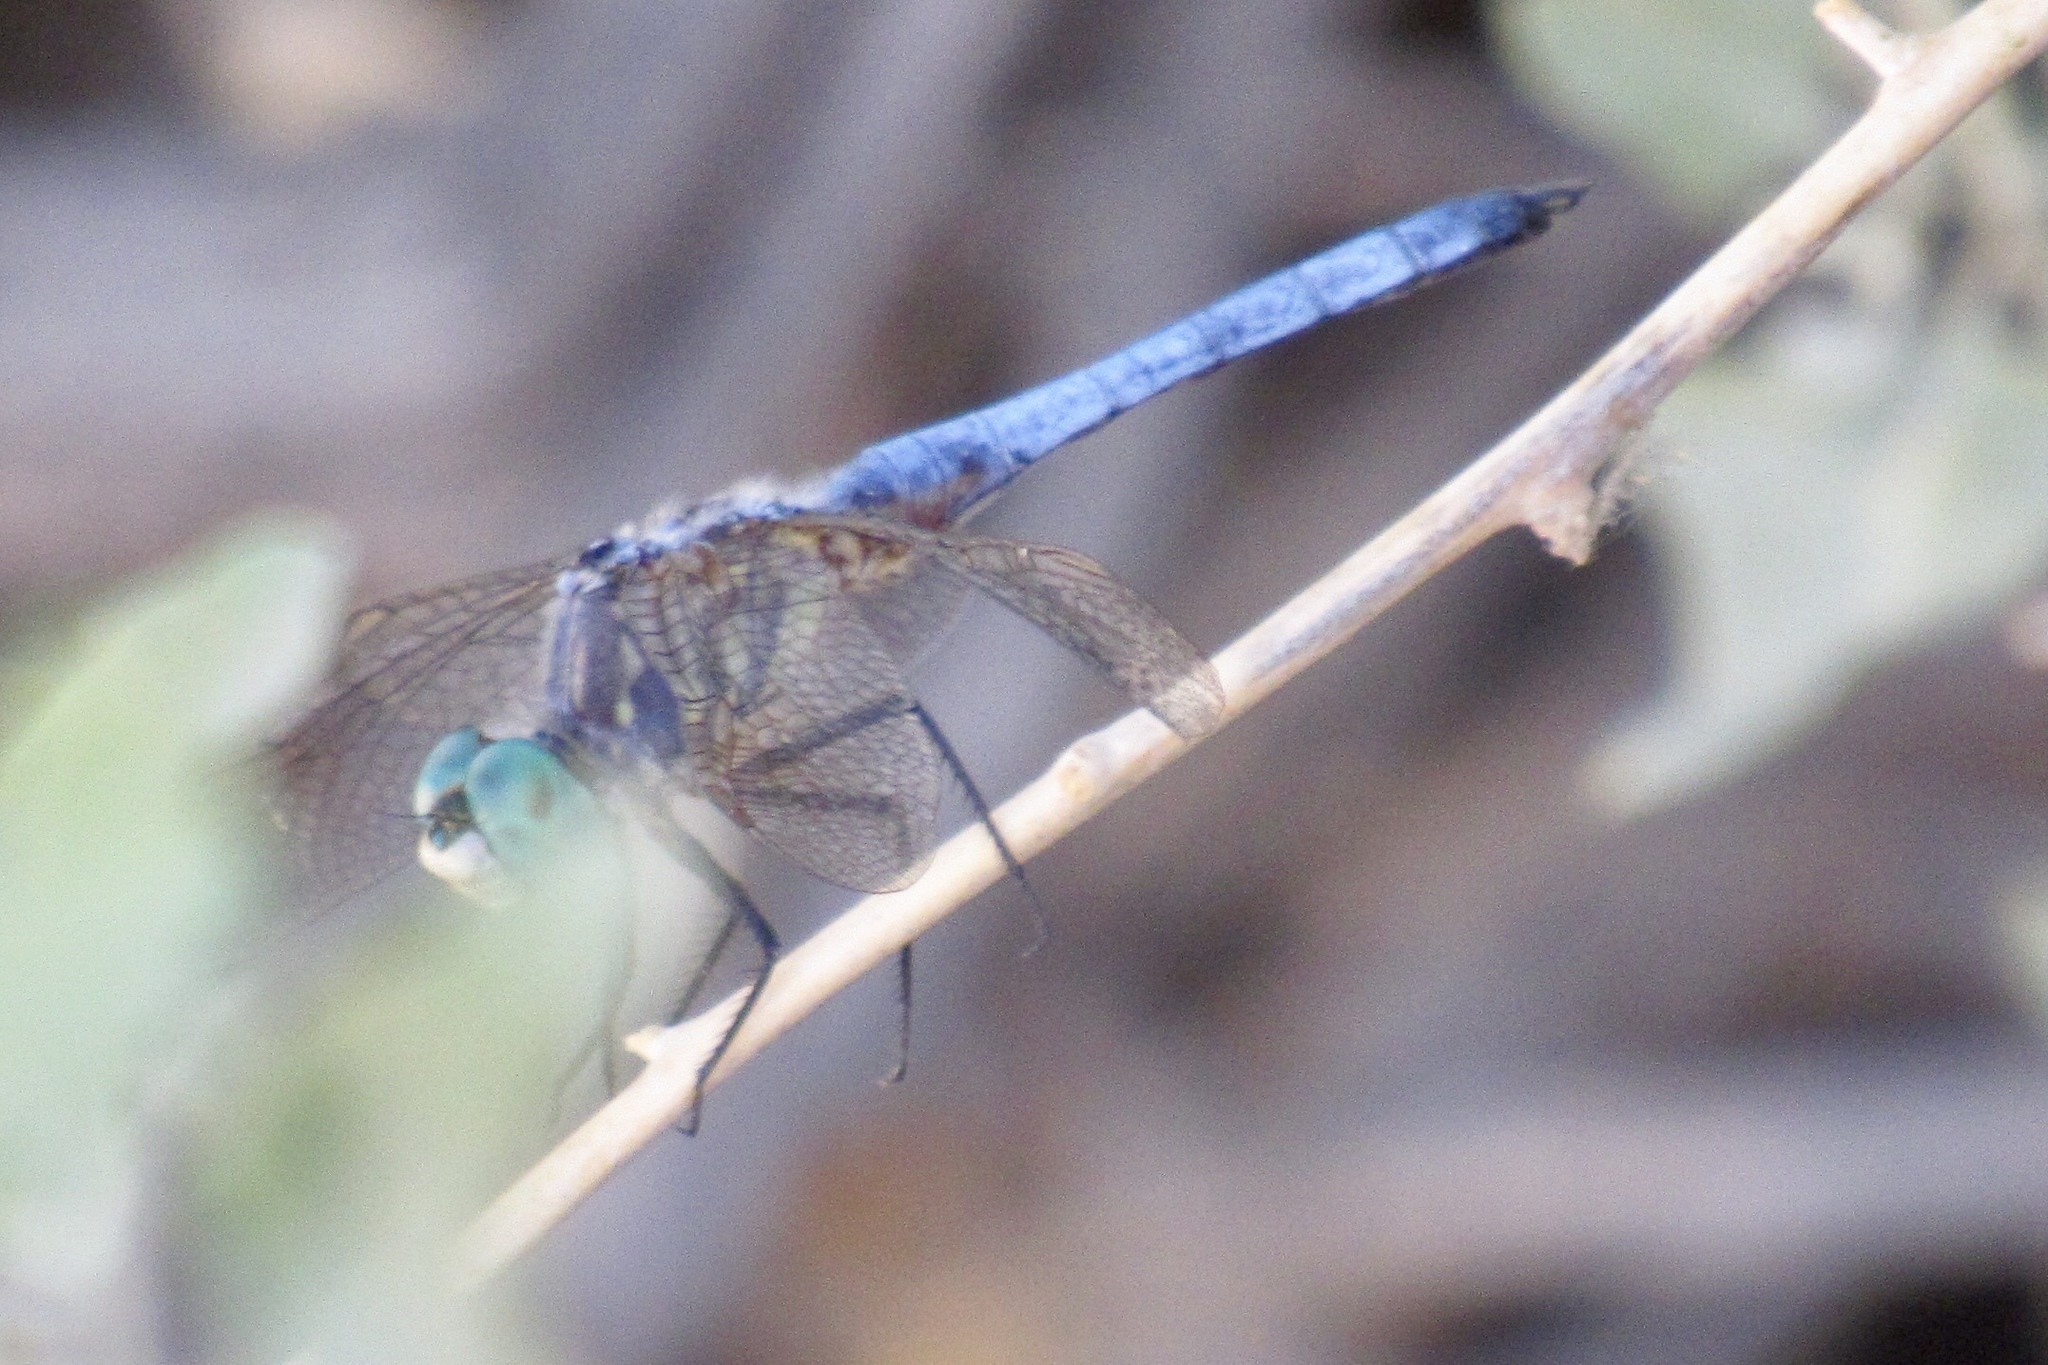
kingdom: Animalia
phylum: Arthropoda
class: Insecta
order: Odonata
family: Libellulidae
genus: Pachydiplax
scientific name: Pachydiplax longipennis
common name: Blue dasher
